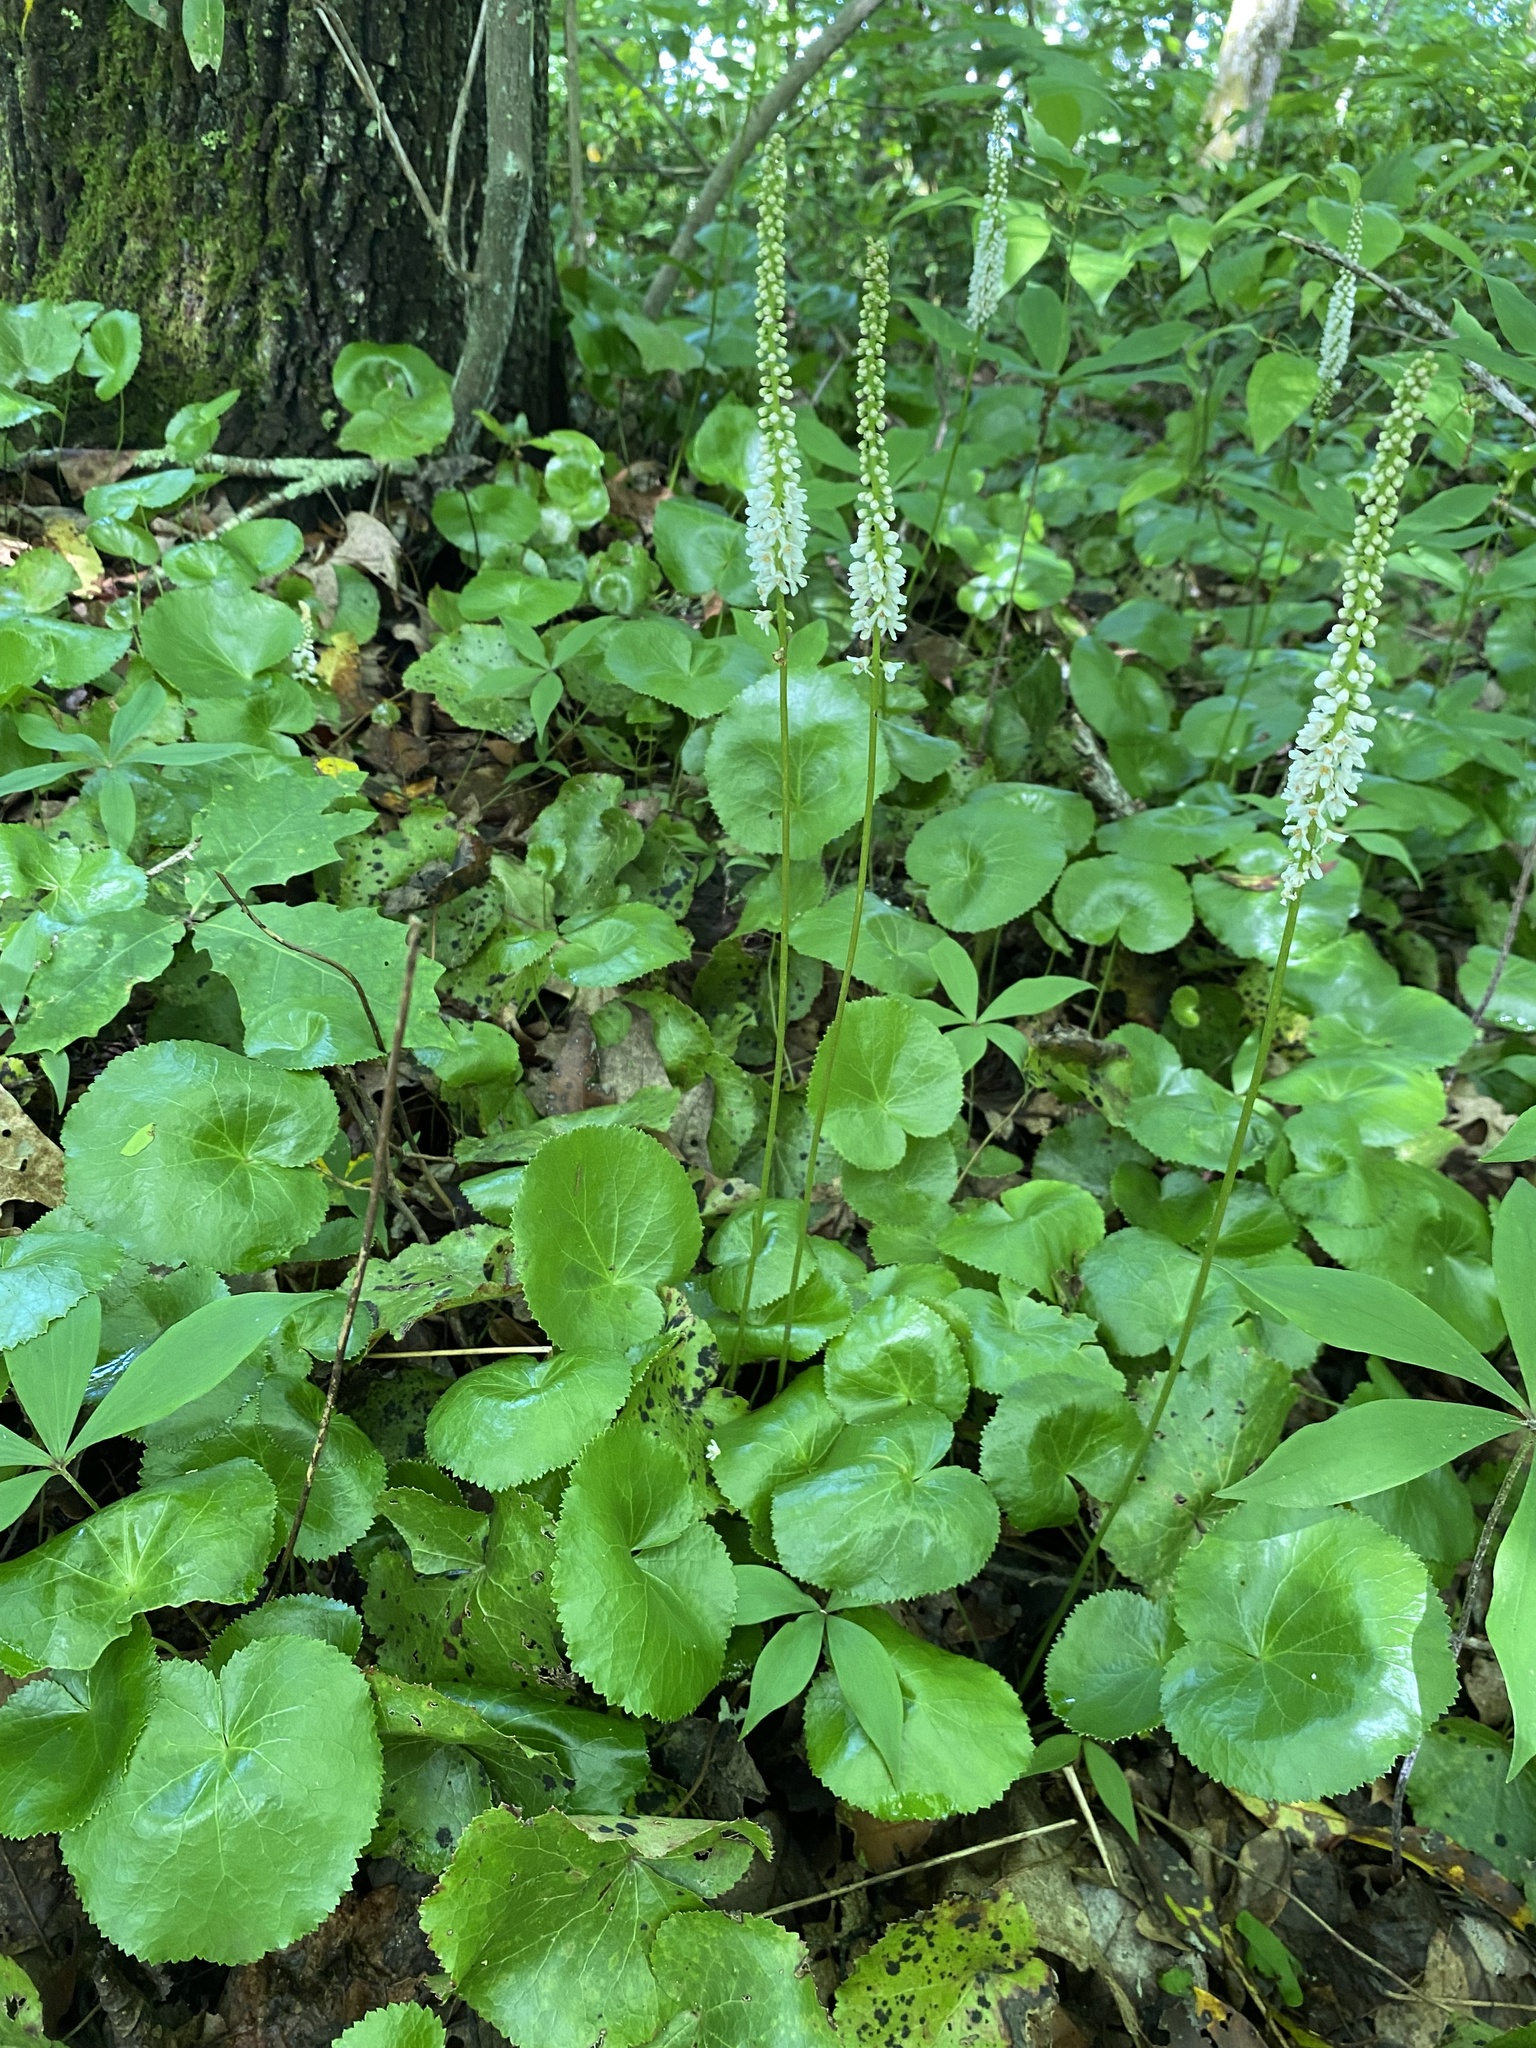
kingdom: Plantae
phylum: Tracheophyta
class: Magnoliopsida
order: Ericales
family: Diapensiaceae
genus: Galax
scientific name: Galax urceolata
